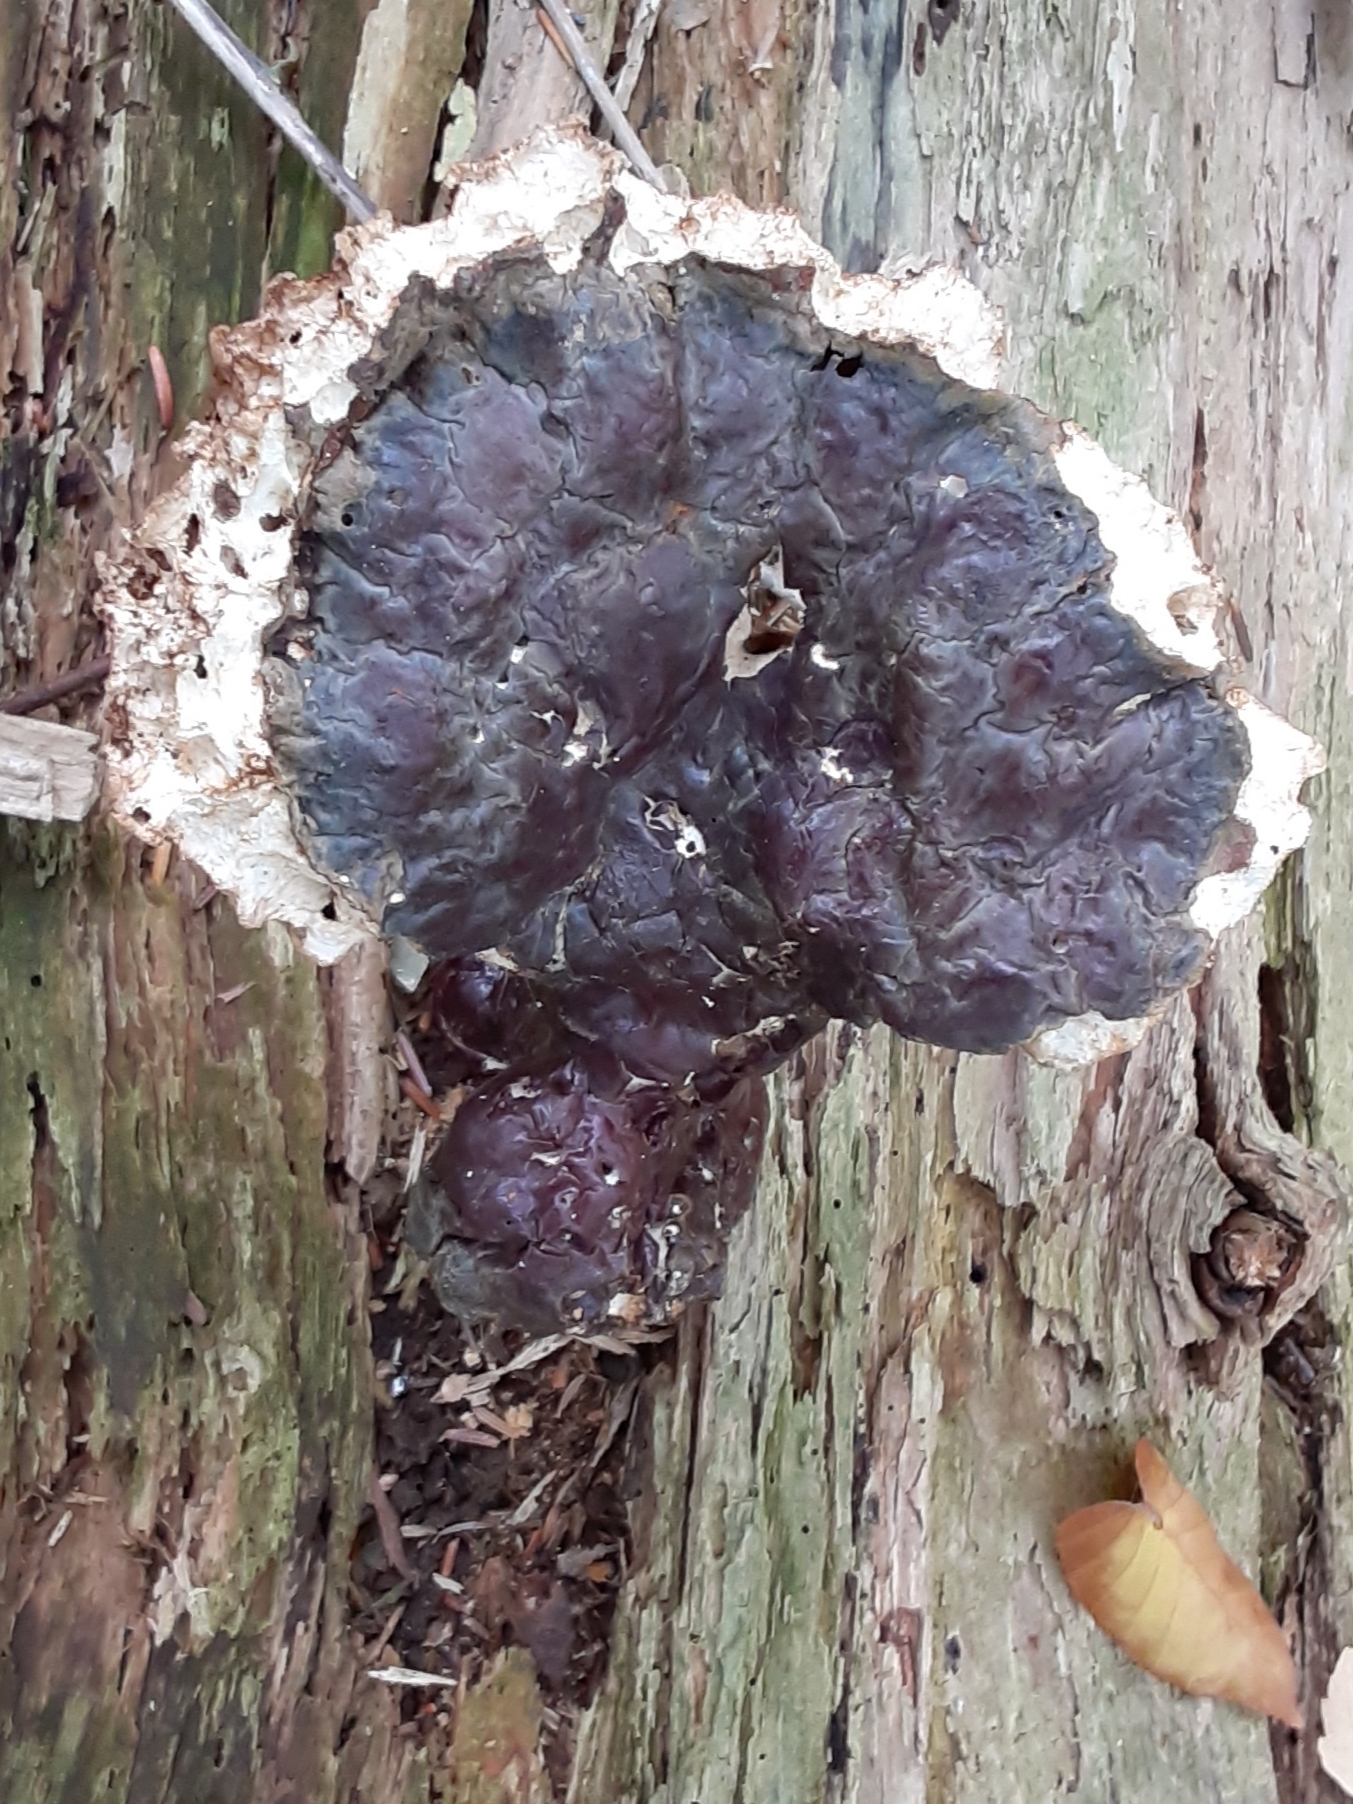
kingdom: Fungi
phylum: Basidiomycota
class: Agaricomycetes
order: Polyporales
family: Polyporaceae
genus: Ganoderma
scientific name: Ganoderma tsugae
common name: Hemlock varnish shelf
